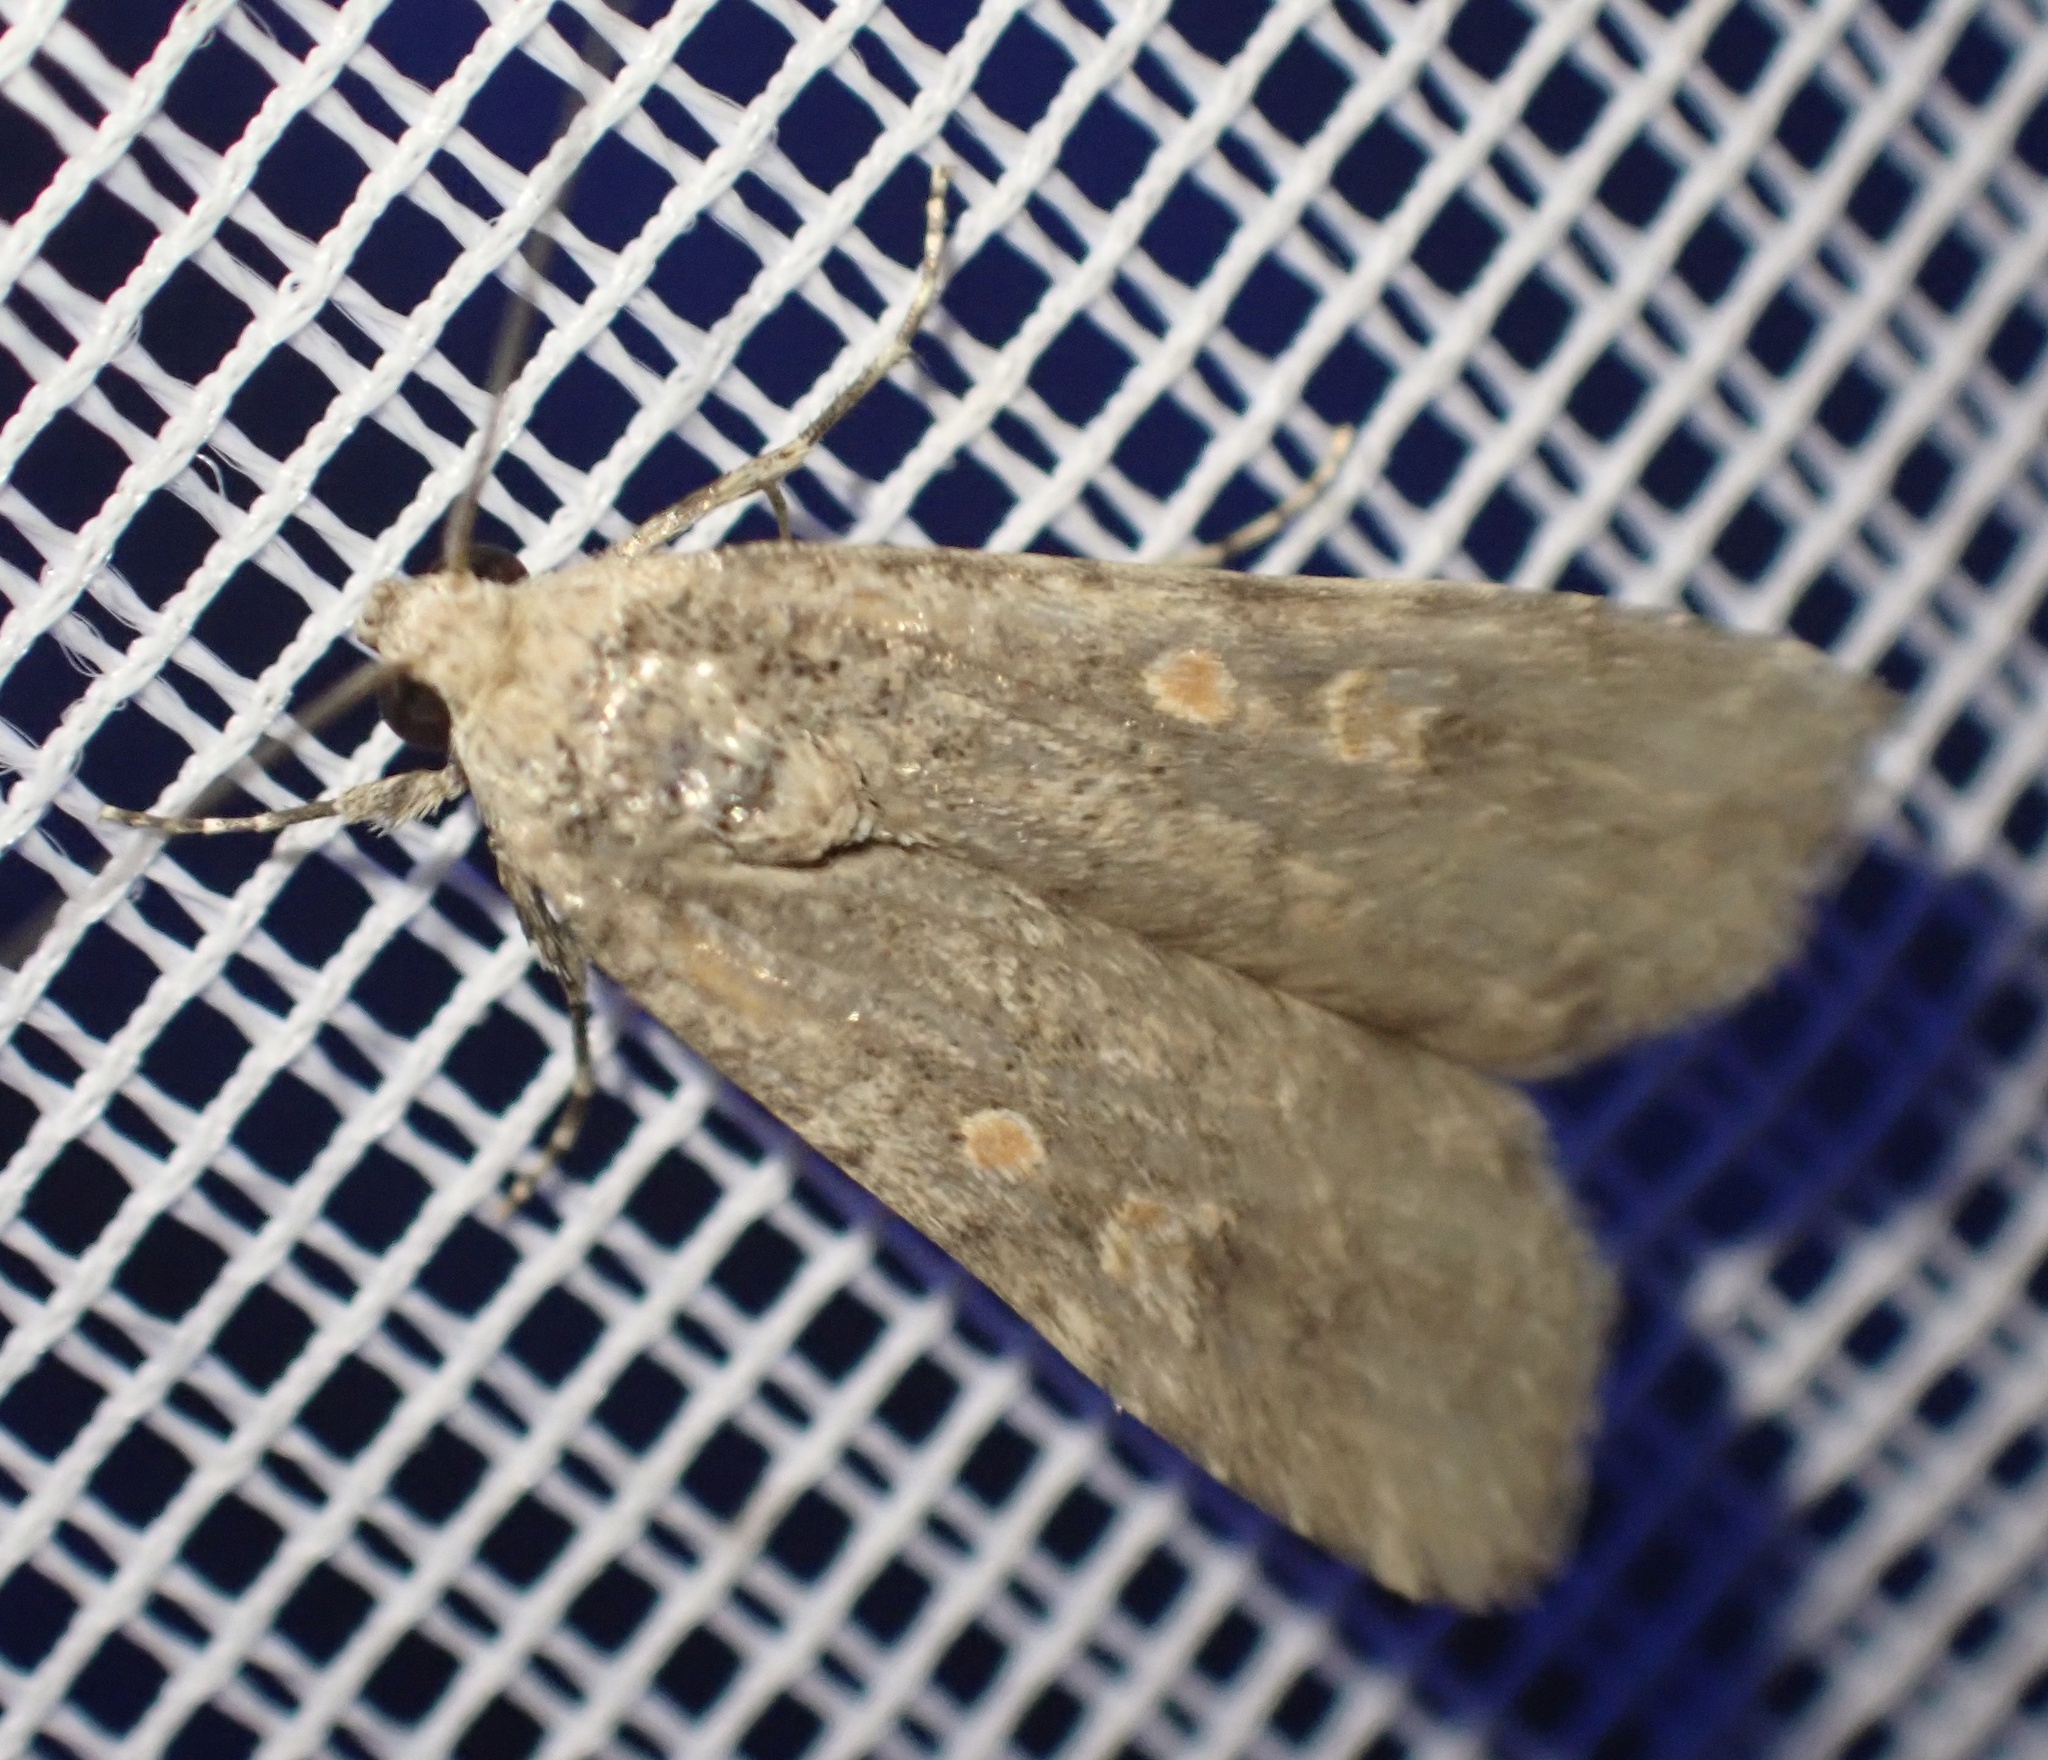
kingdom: Animalia
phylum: Arthropoda
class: Insecta
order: Lepidoptera
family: Noctuidae
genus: Spodoptera
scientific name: Spodoptera exigua
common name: Beet armyworm
